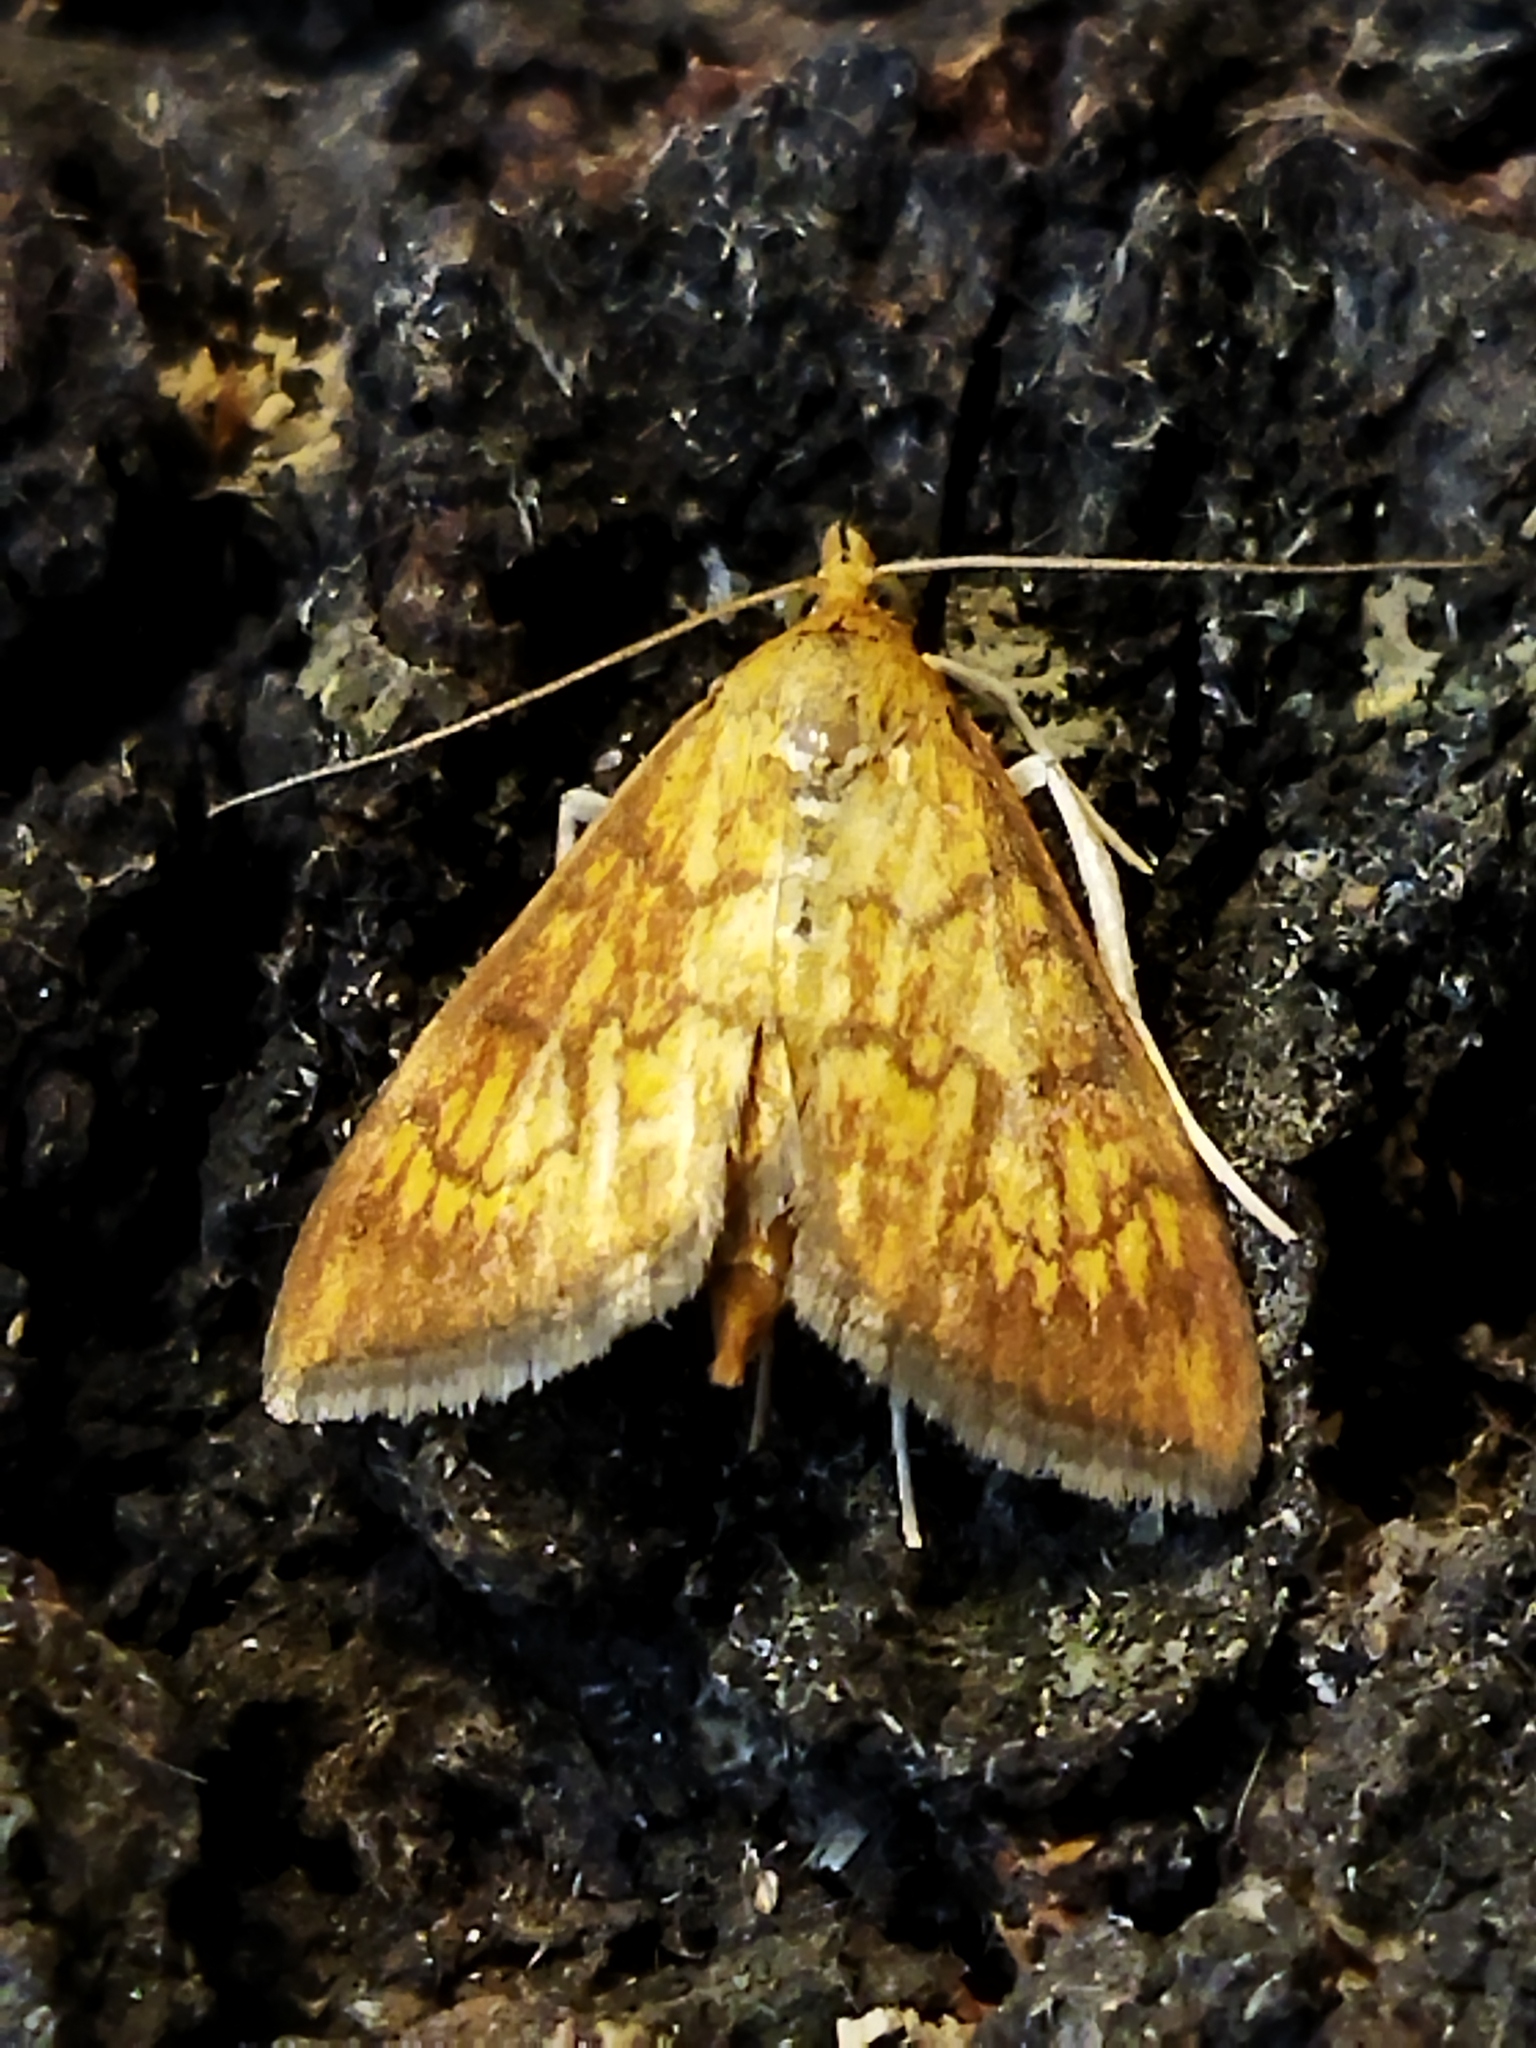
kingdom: Animalia
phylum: Arthropoda
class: Insecta
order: Lepidoptera
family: Crambidae
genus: Ecpyrrhorrhoe
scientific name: Ecpyrrhorrhoe rubiginalis
